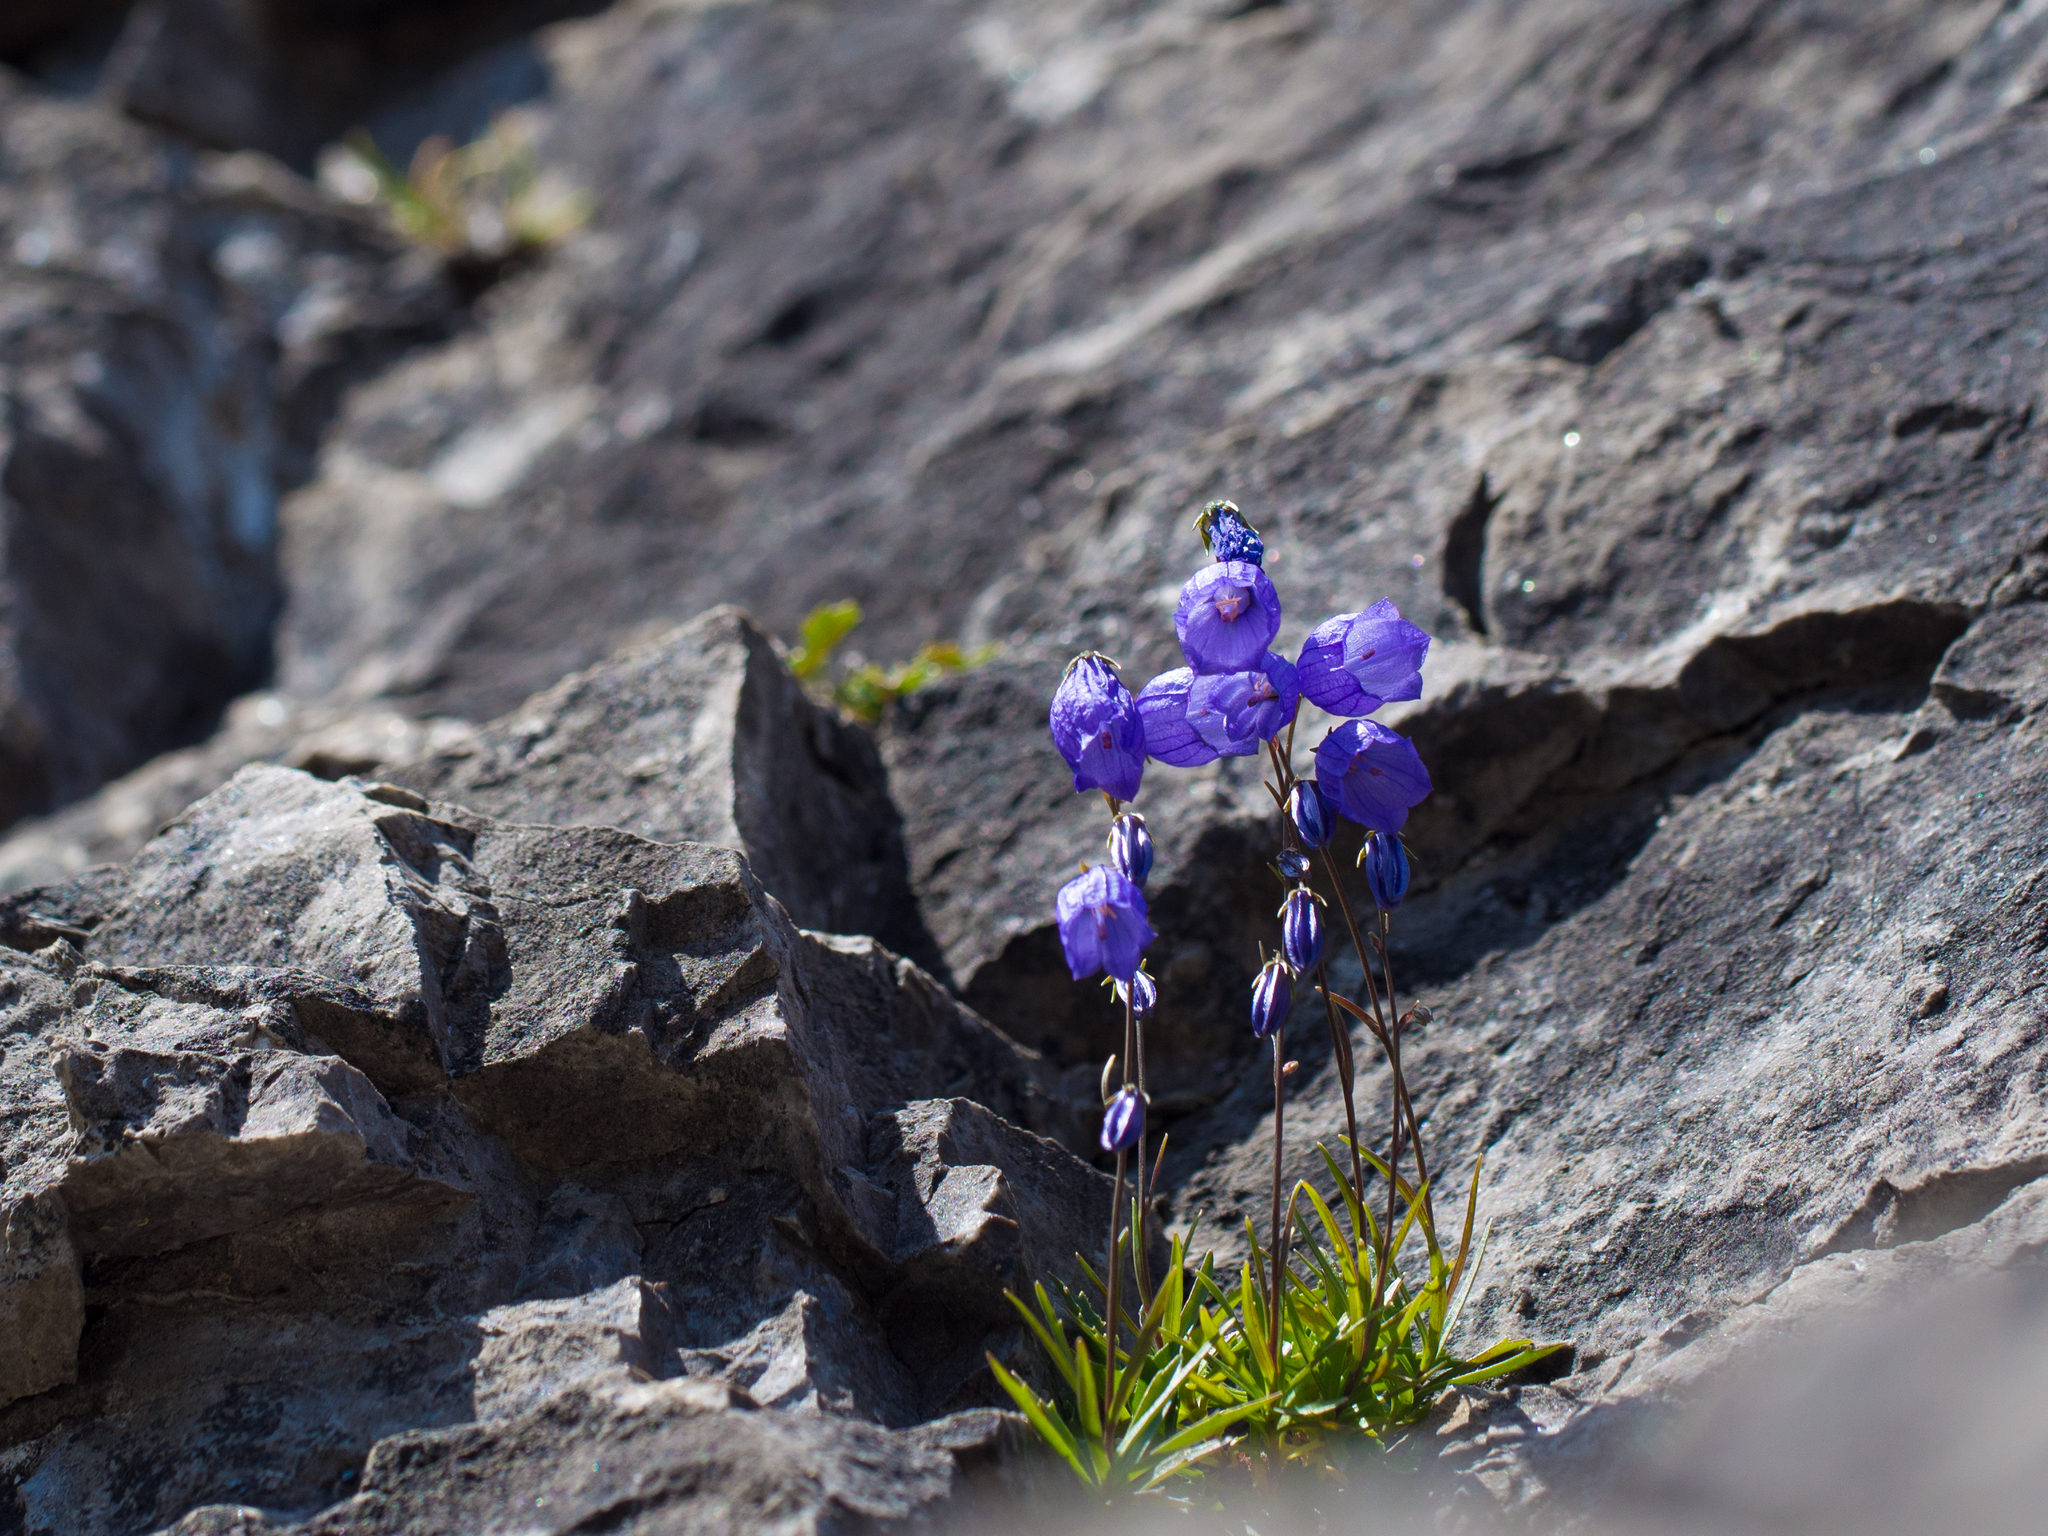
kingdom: Plantae
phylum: Tracheophyta
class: Magnoliopsida
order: Asterales
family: Campanulaceae
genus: Campanula
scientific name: Campanula cespitosa
